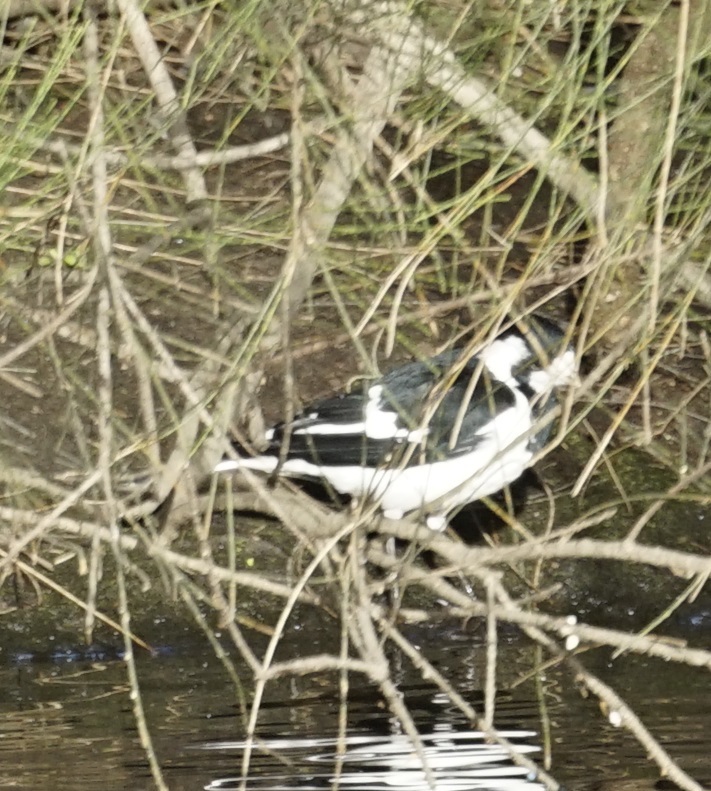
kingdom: Animalia
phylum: Chordata
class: Aves
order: Passeriformes
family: Monarchidae
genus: Grallina
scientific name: Grallina cyanoleuca
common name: Magpie-lark
